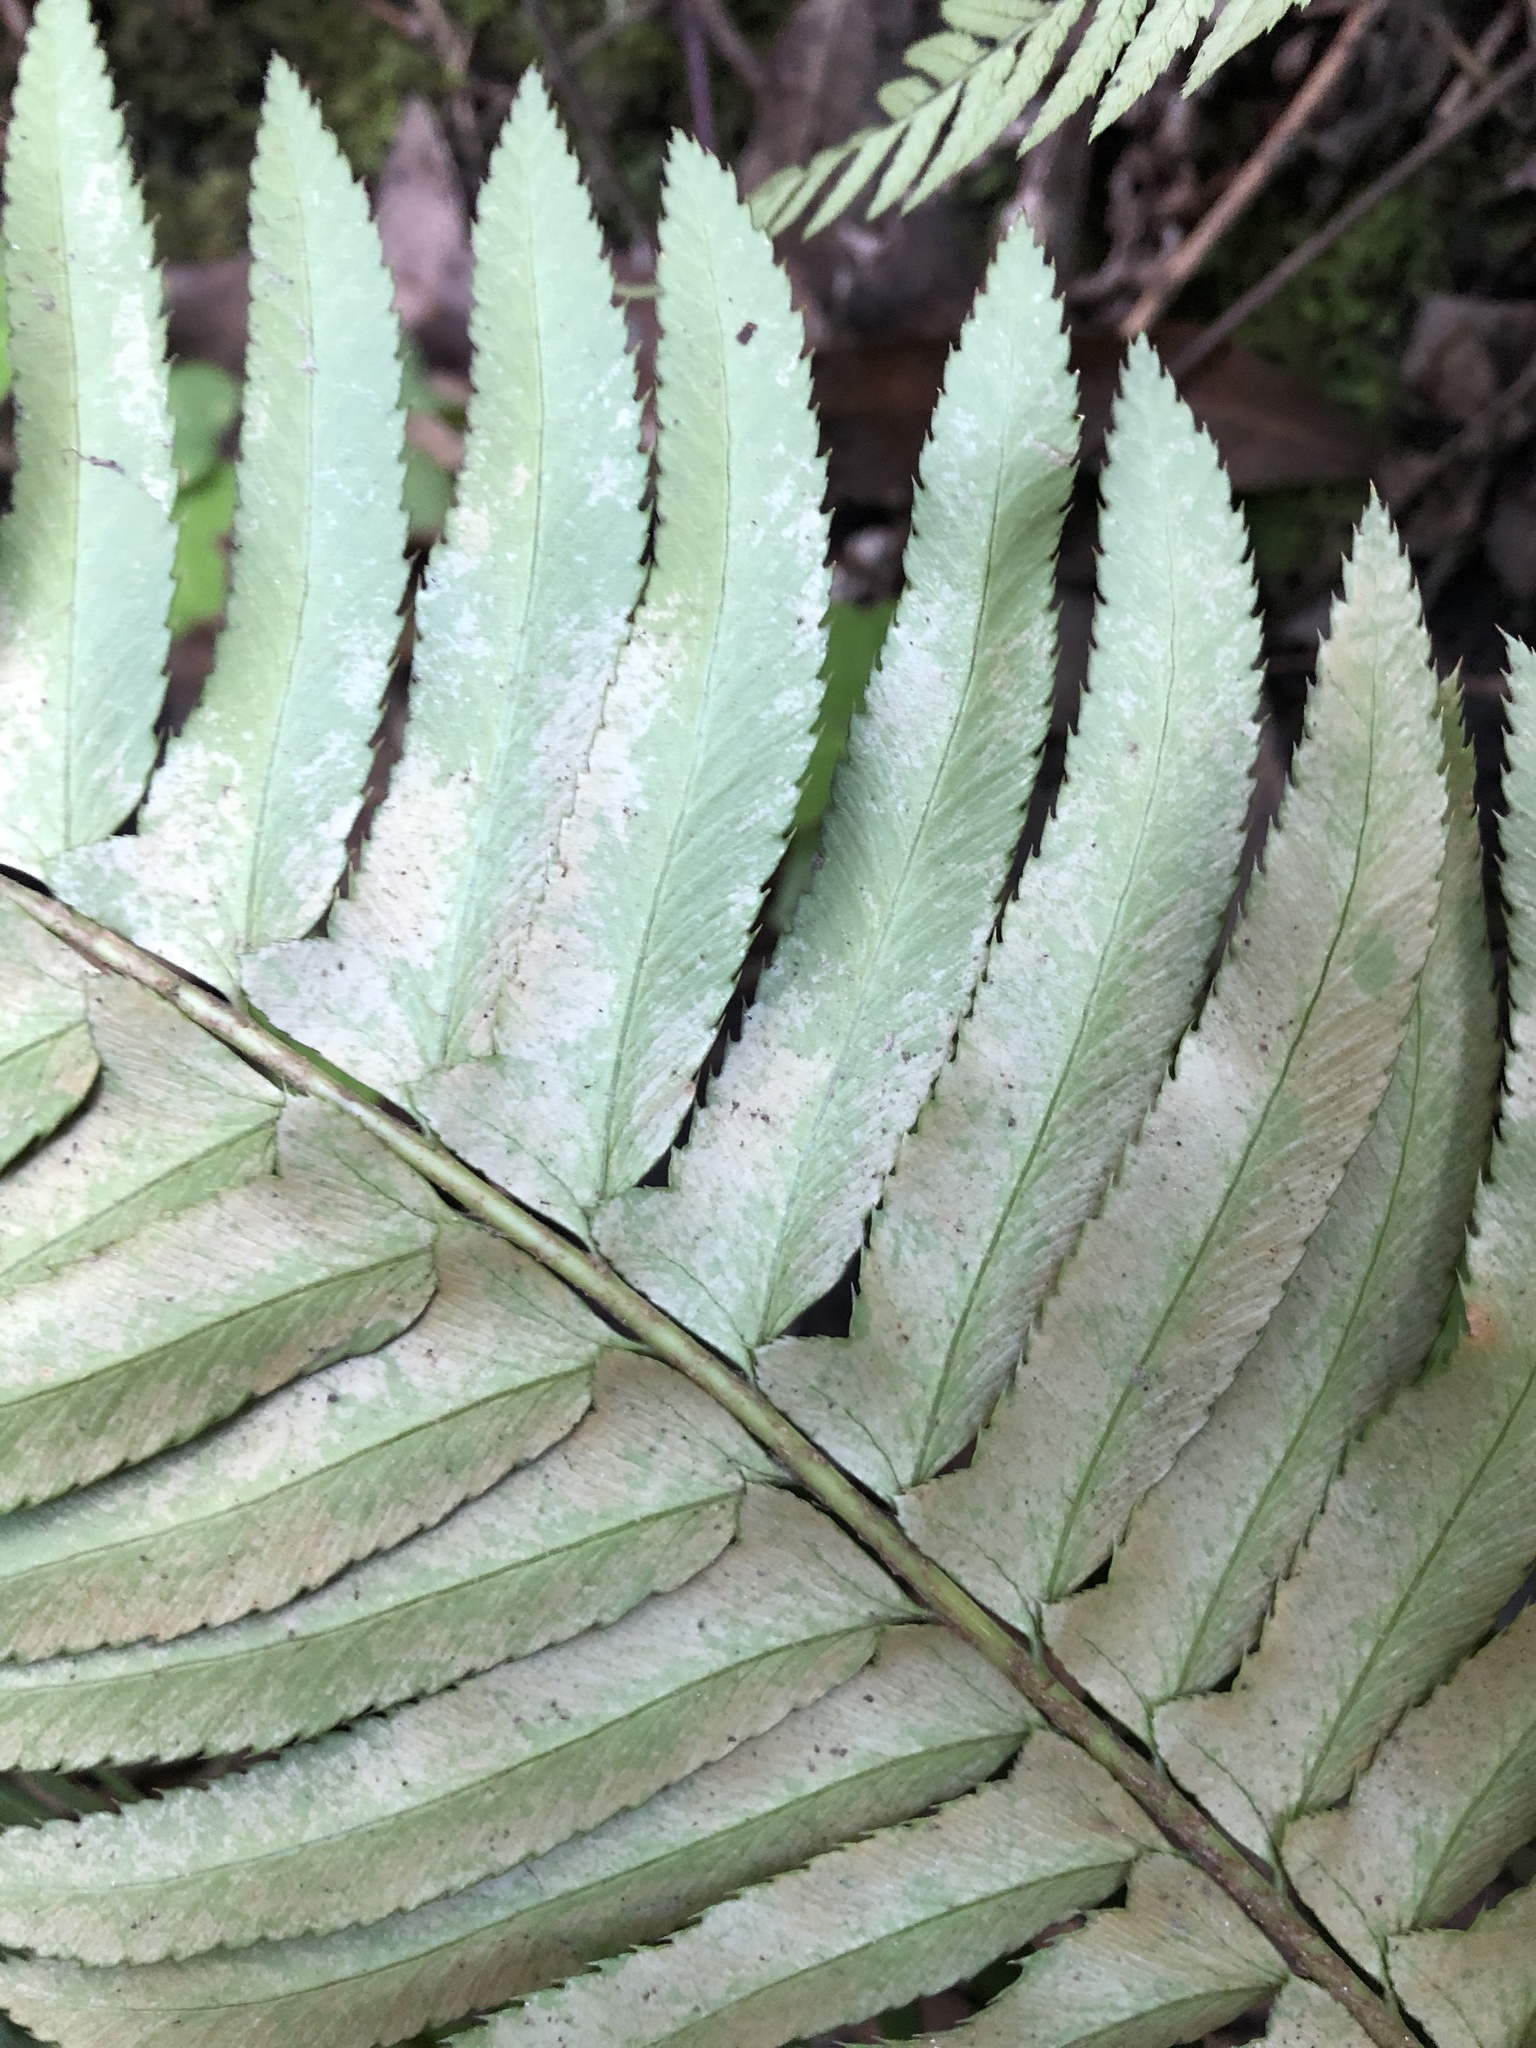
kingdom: Plantae
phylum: Tracheophyta
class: Polypodiopsida
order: Polypodiales
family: Dryopteridaceae
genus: Polystichum
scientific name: Polystichum munitum
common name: Western sword-fern
